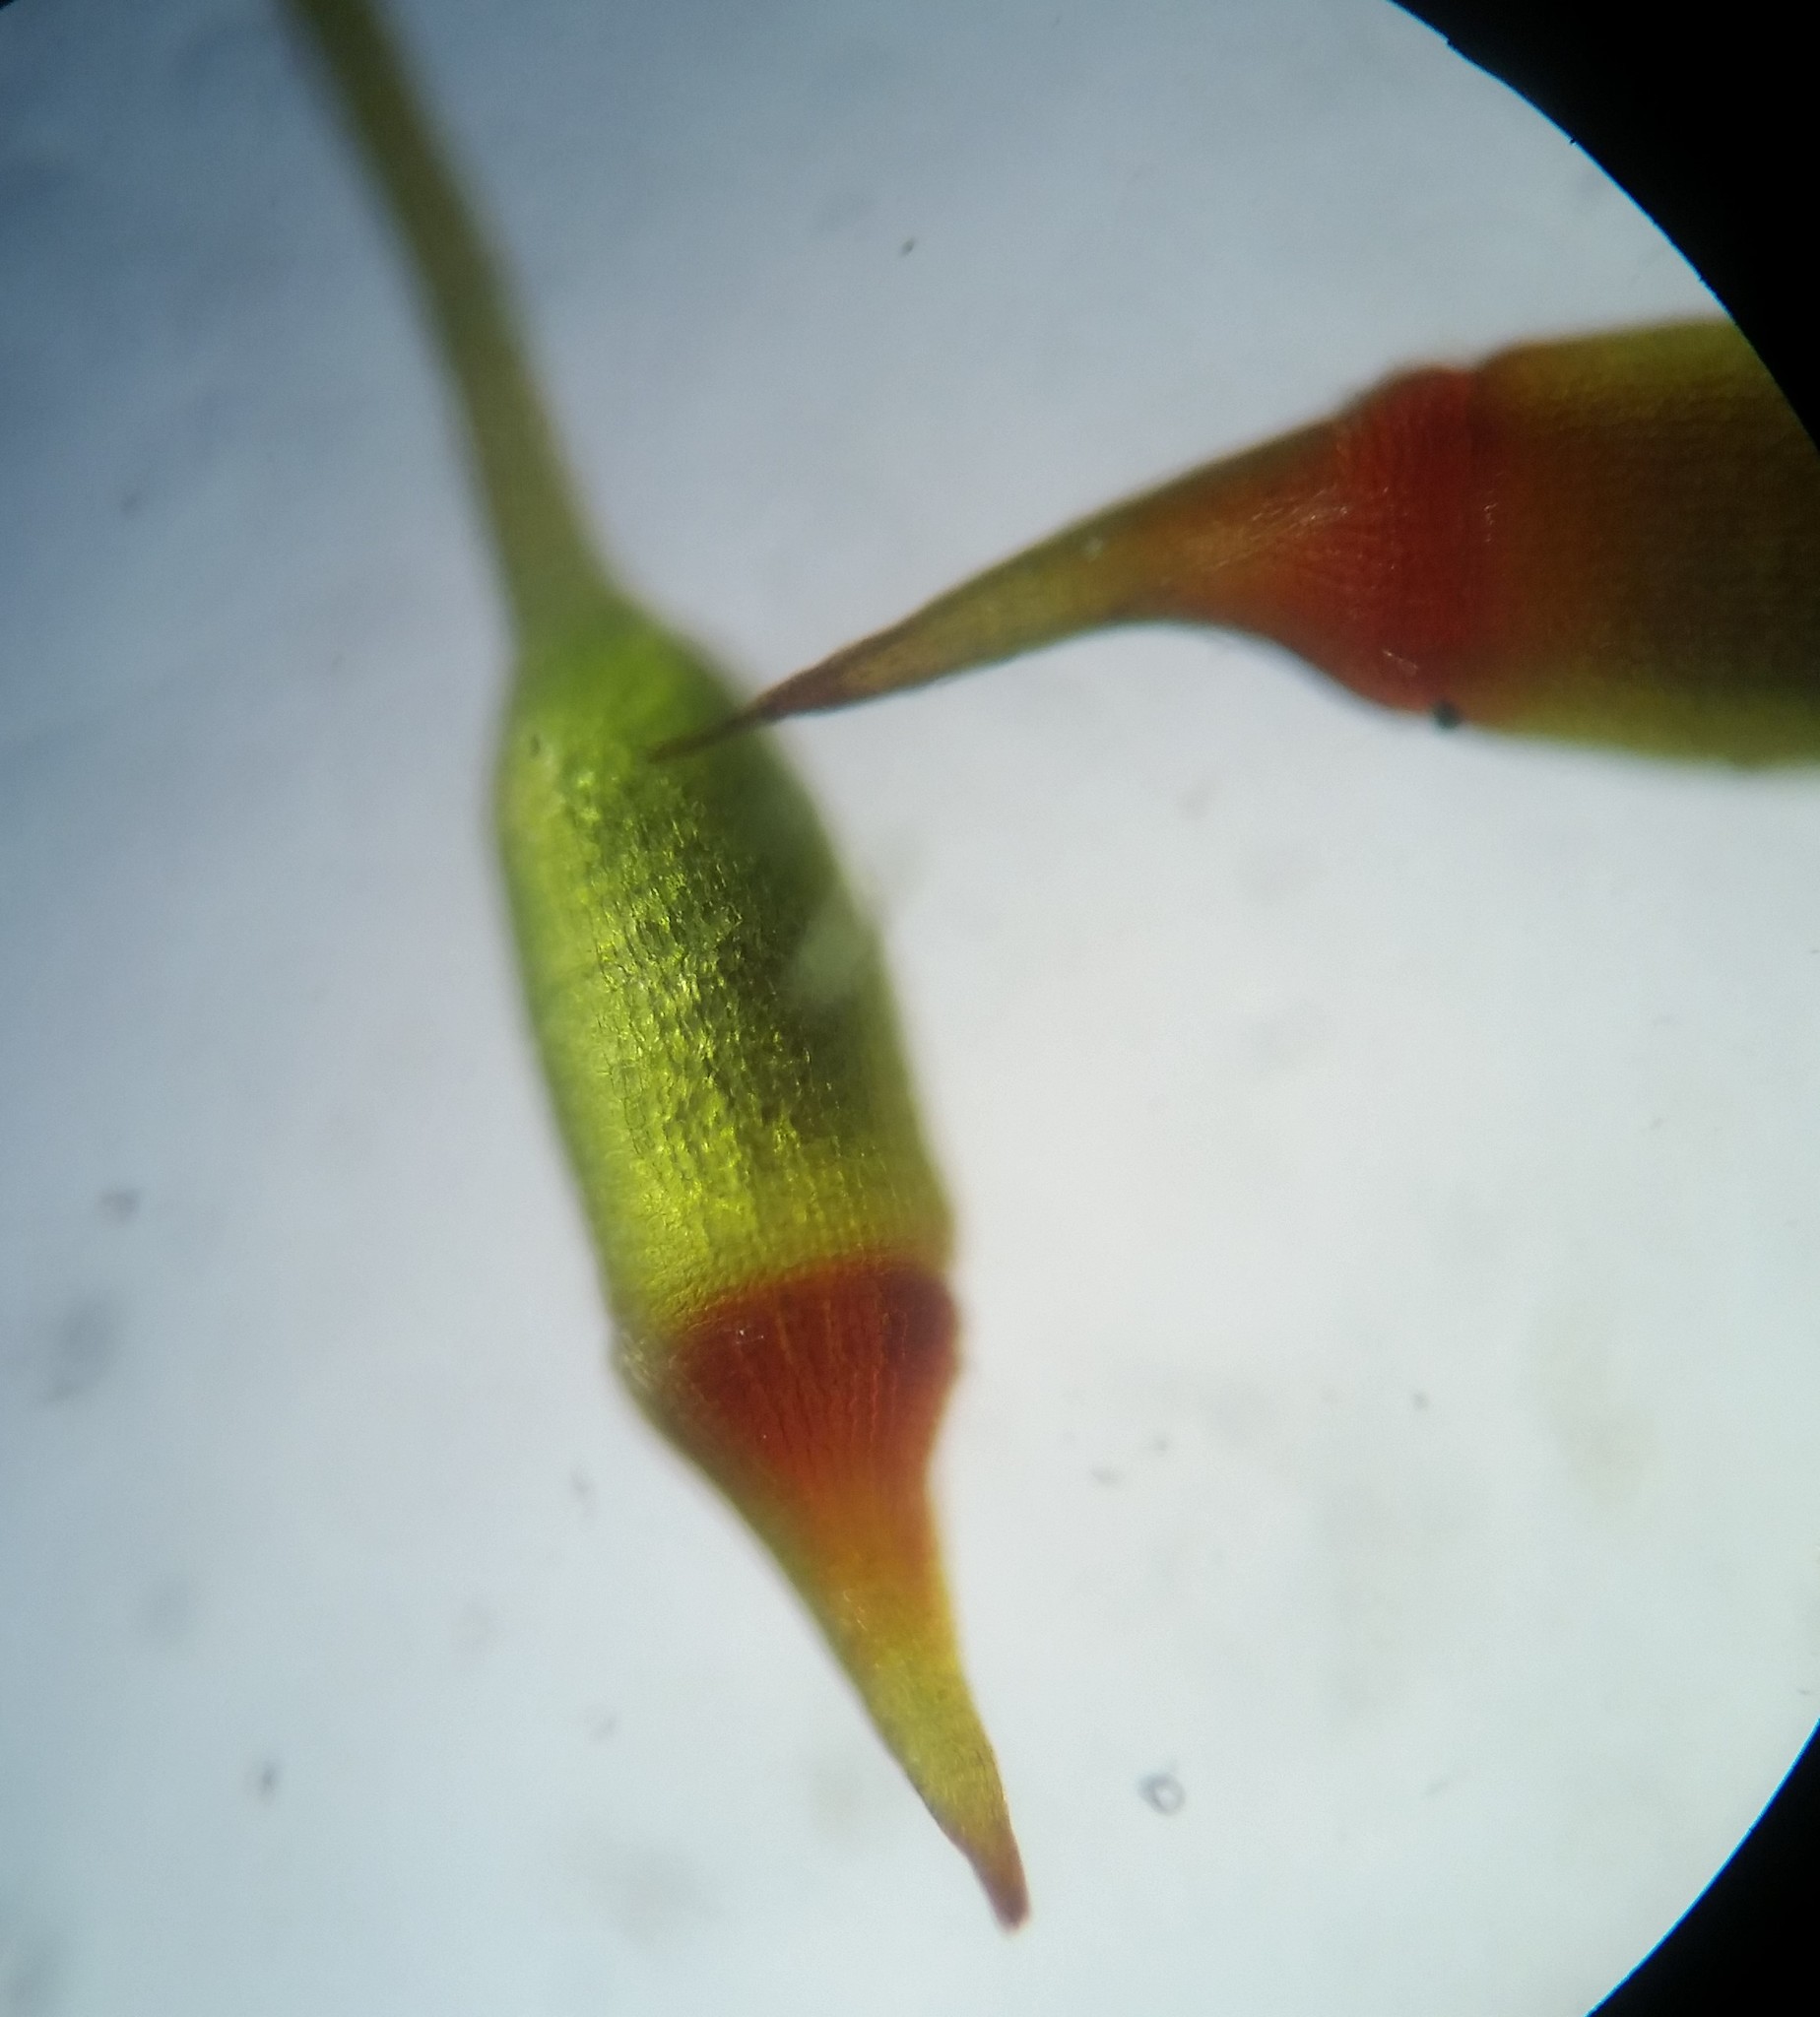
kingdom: Plantae
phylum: Bryophyta
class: Bryopsida
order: Dicranales
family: Fissidentaceae
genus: Fissidens
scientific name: Fissidens bryoides
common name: Lesser pocket moss
